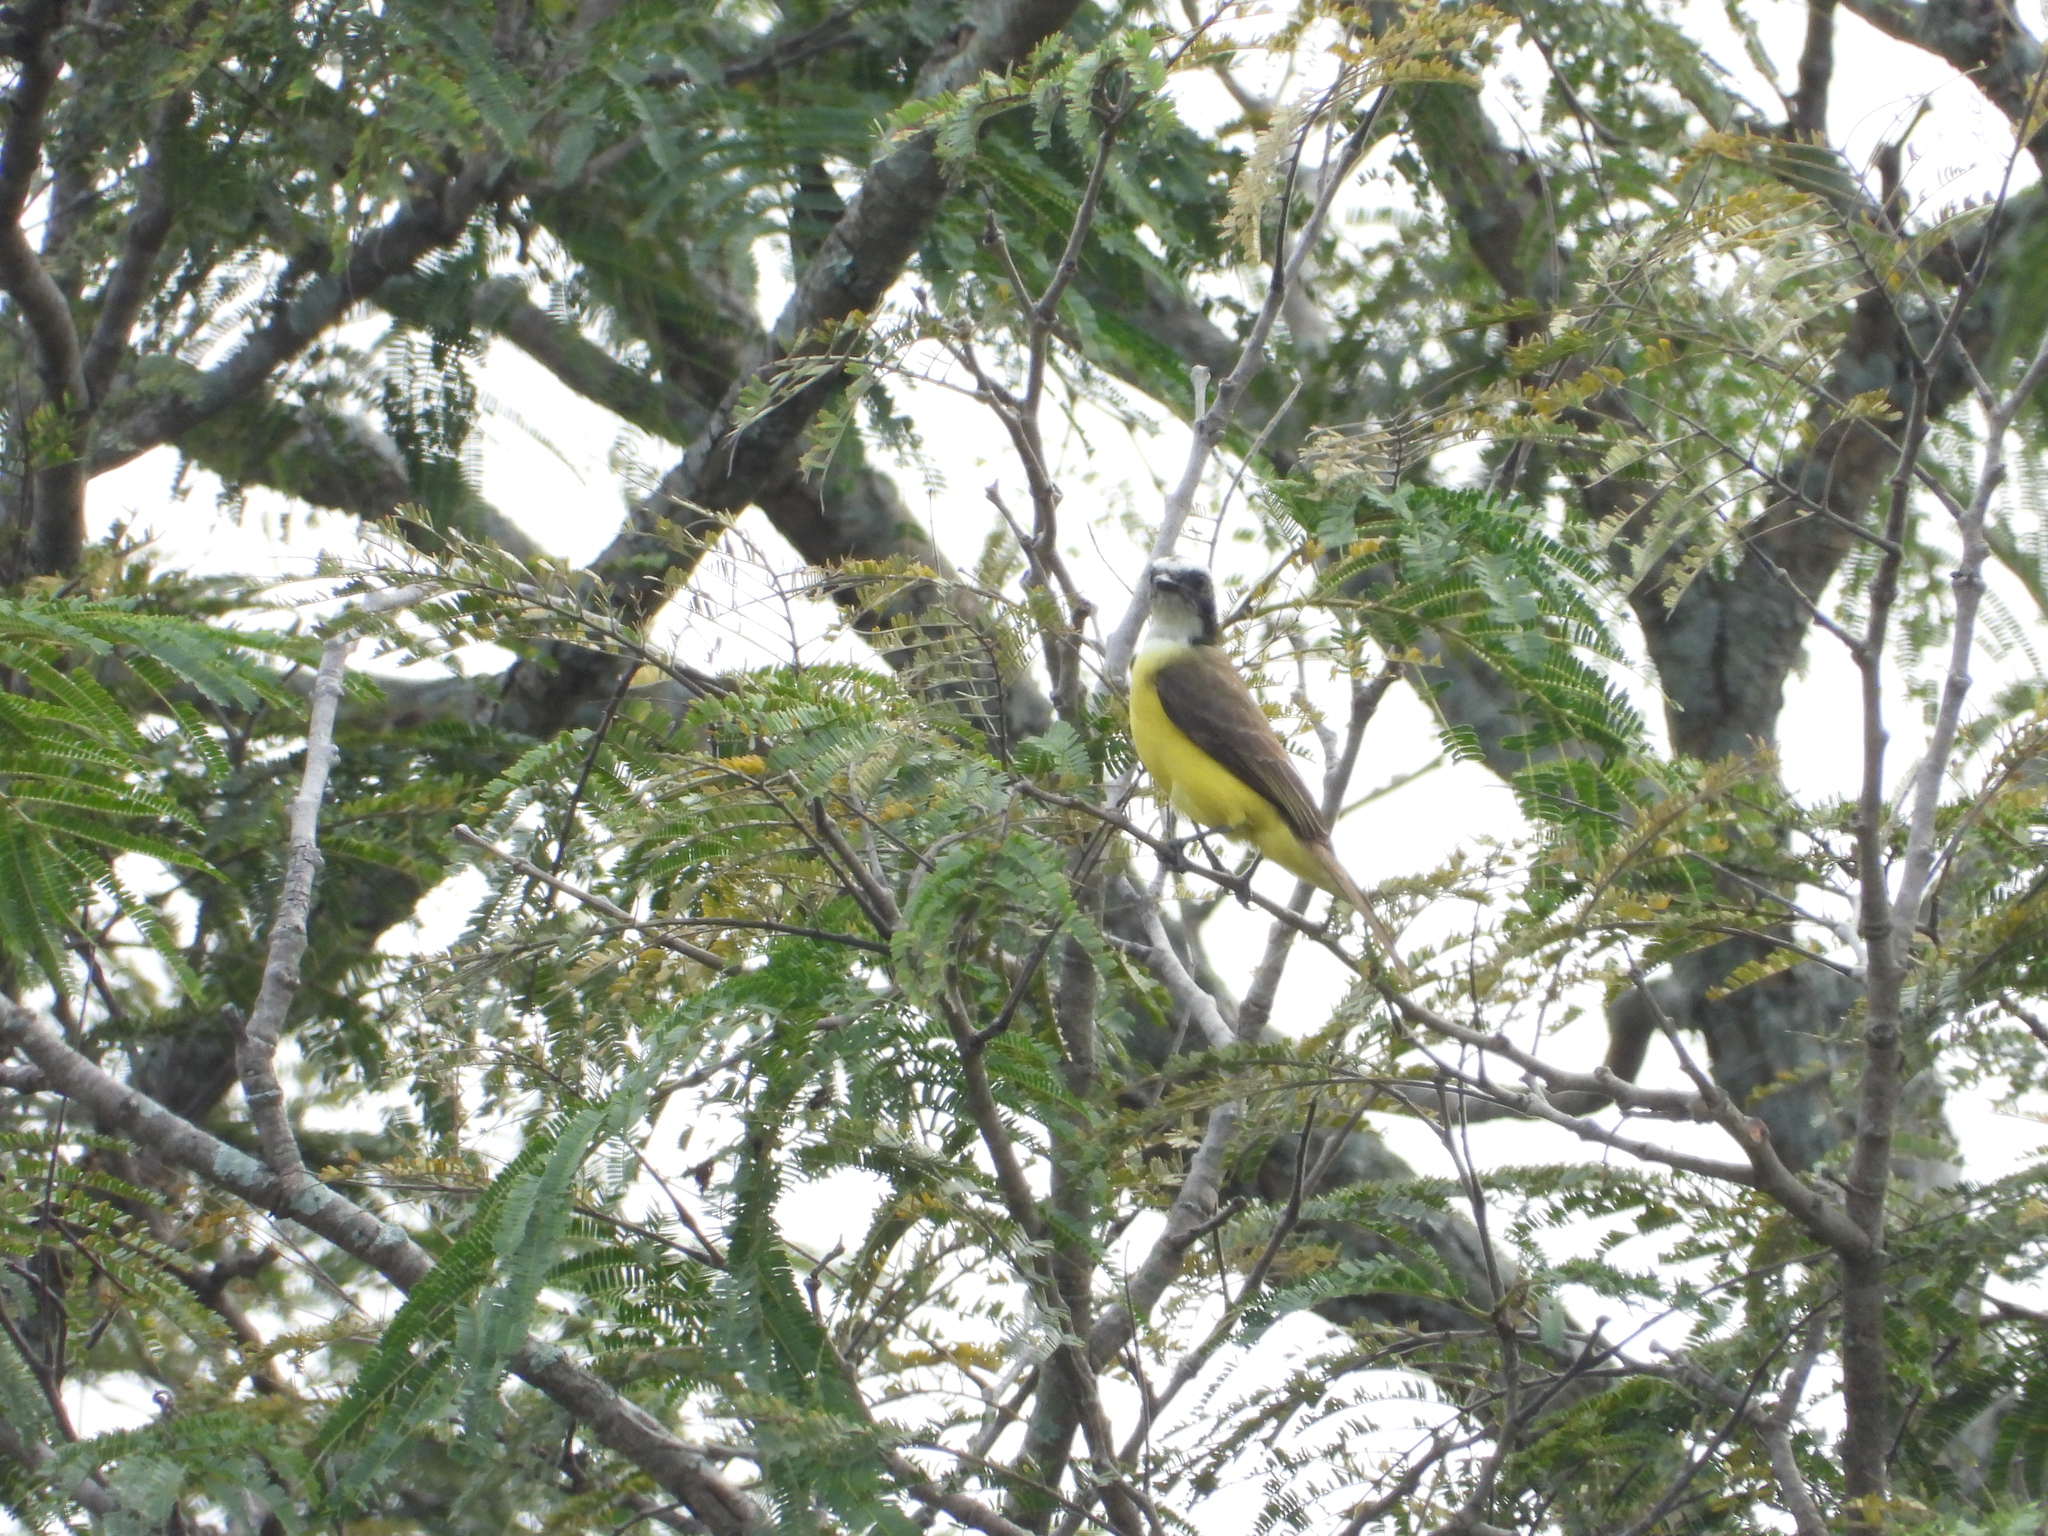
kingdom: Animalia
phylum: Chordata
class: Aves
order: Passeriformes
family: Tyrannidae
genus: Myiozetetes
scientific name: Myiozetetes similis
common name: Social flycatcher
